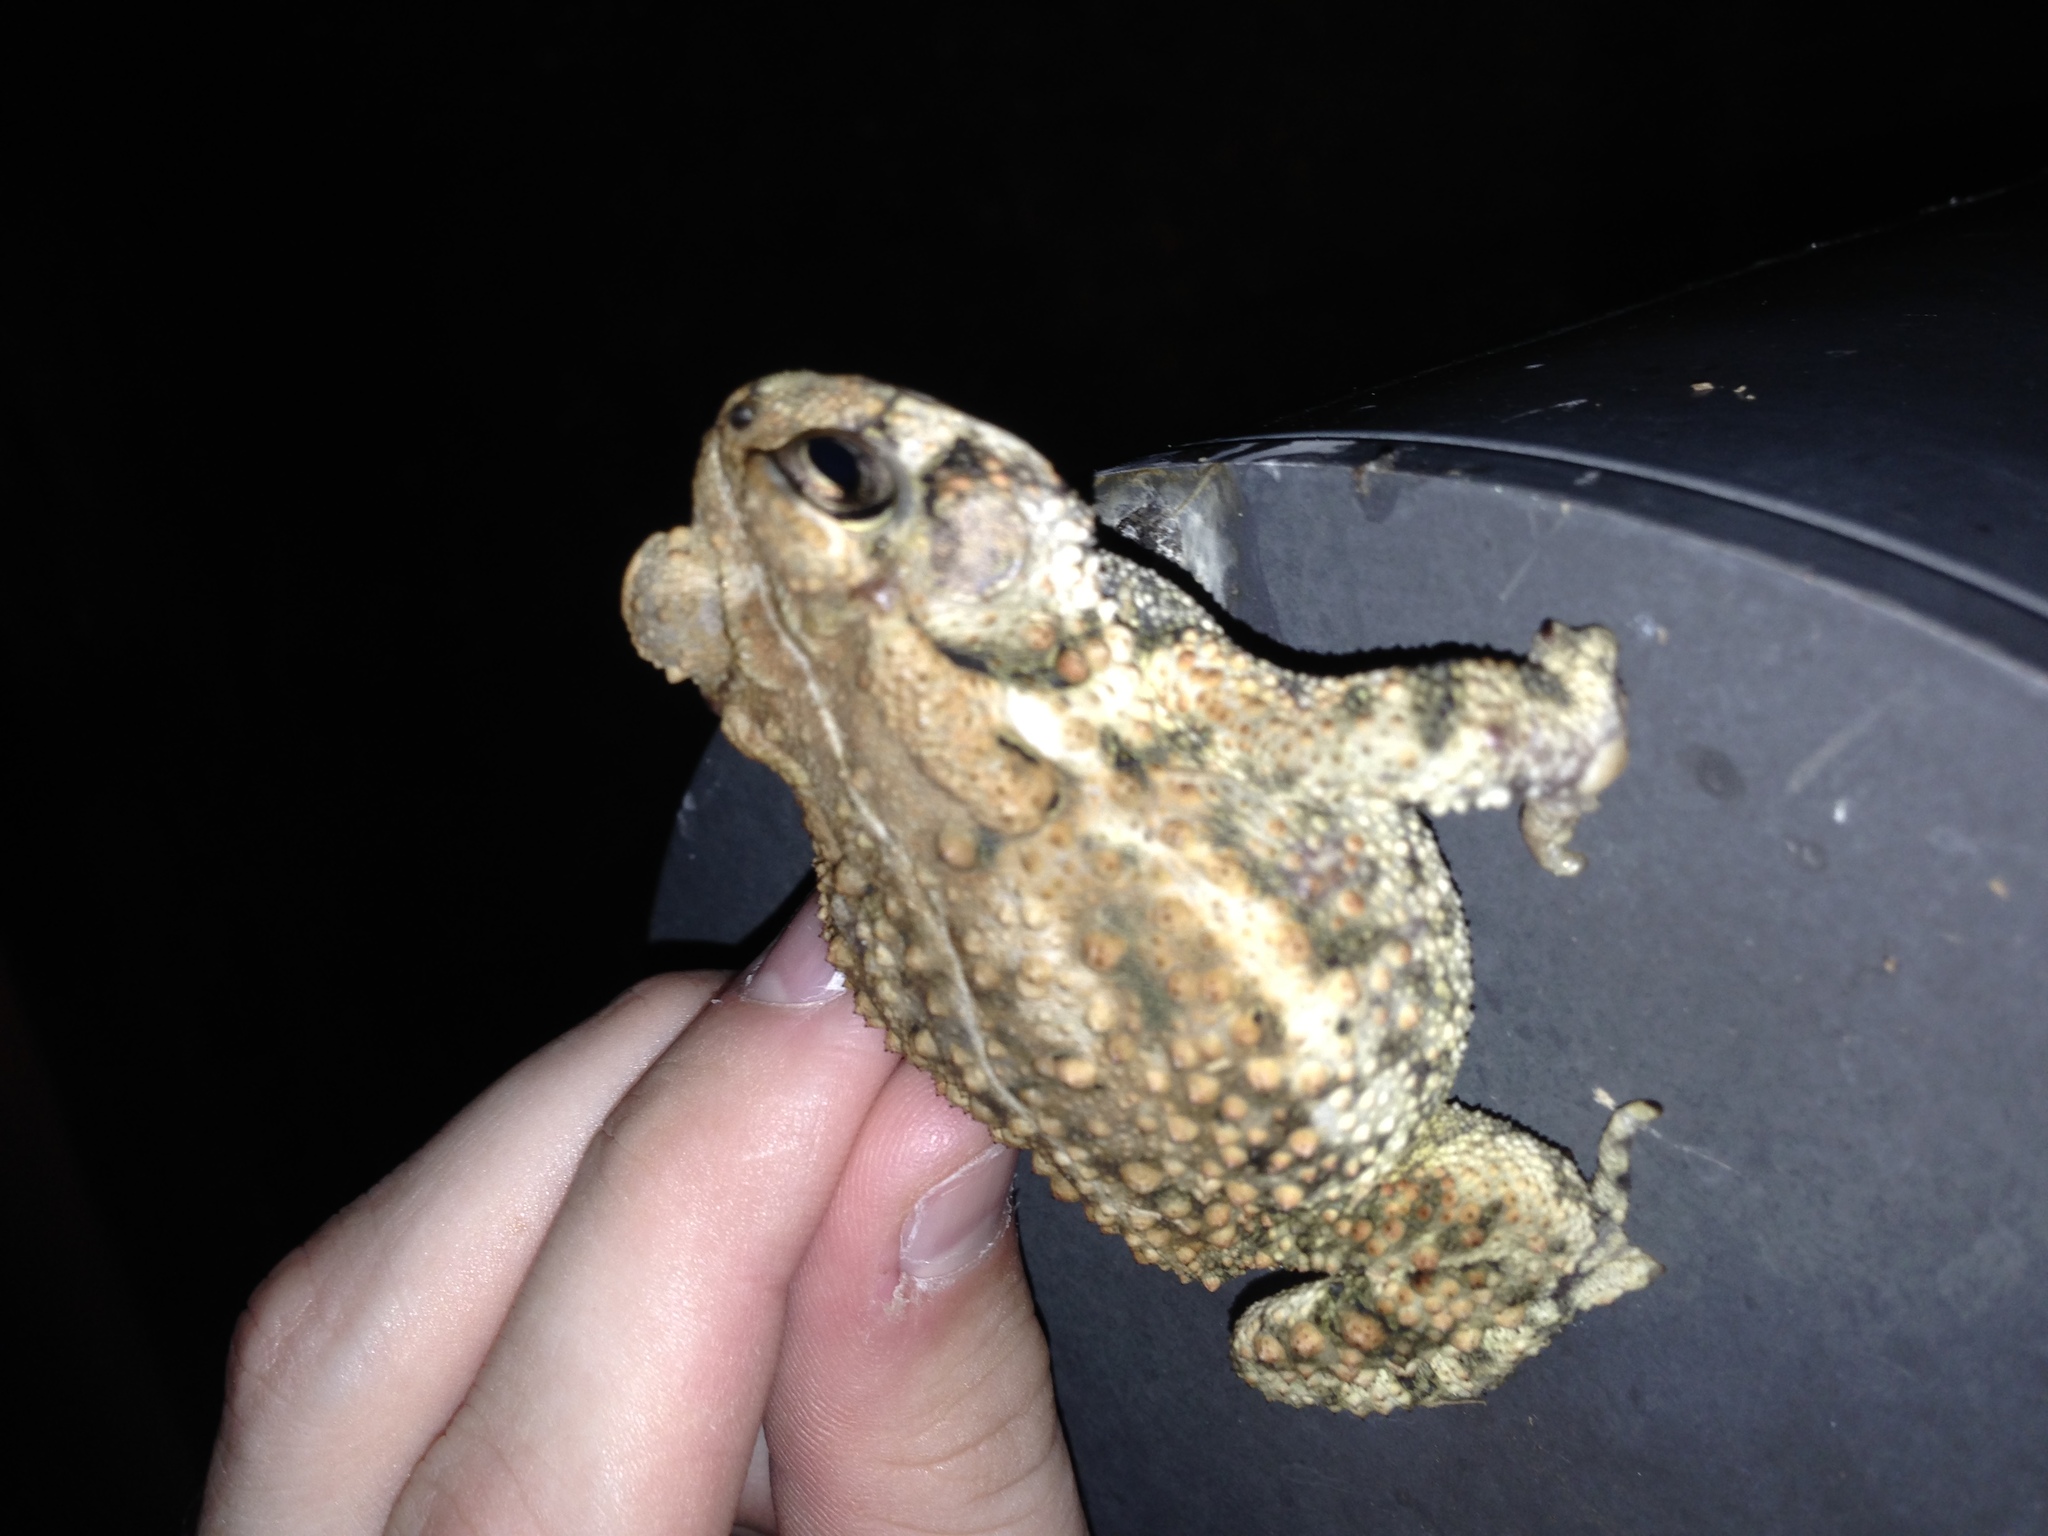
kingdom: Animalia
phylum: Chordata
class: Amphibia
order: Anura
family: Bufonidae
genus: Anaxyrus
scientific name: Anaxyrus fowleri
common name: Fowler's toad
